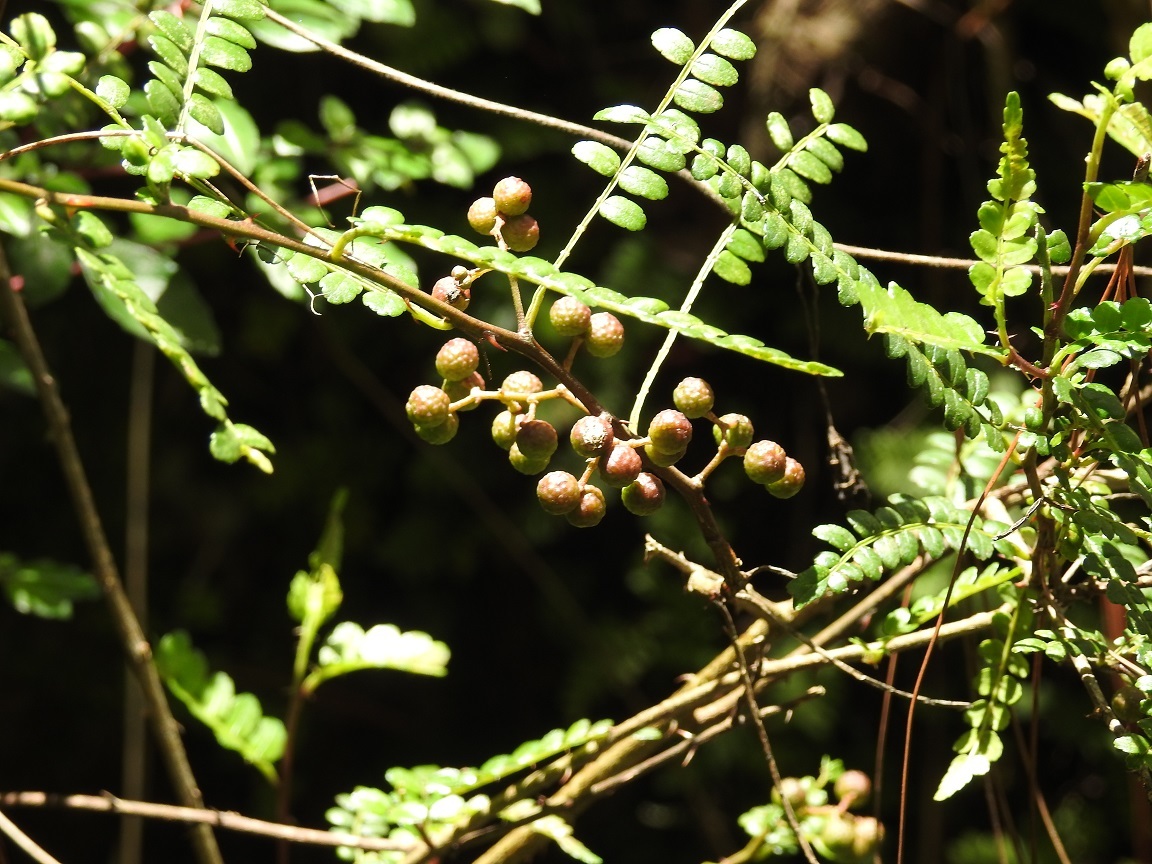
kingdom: Plantae
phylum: Tracheophyta
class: Magnoliopsida
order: Sapindales
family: Rutaceae
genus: Zanthoxylum
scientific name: Zanthoxylum foliolosum
